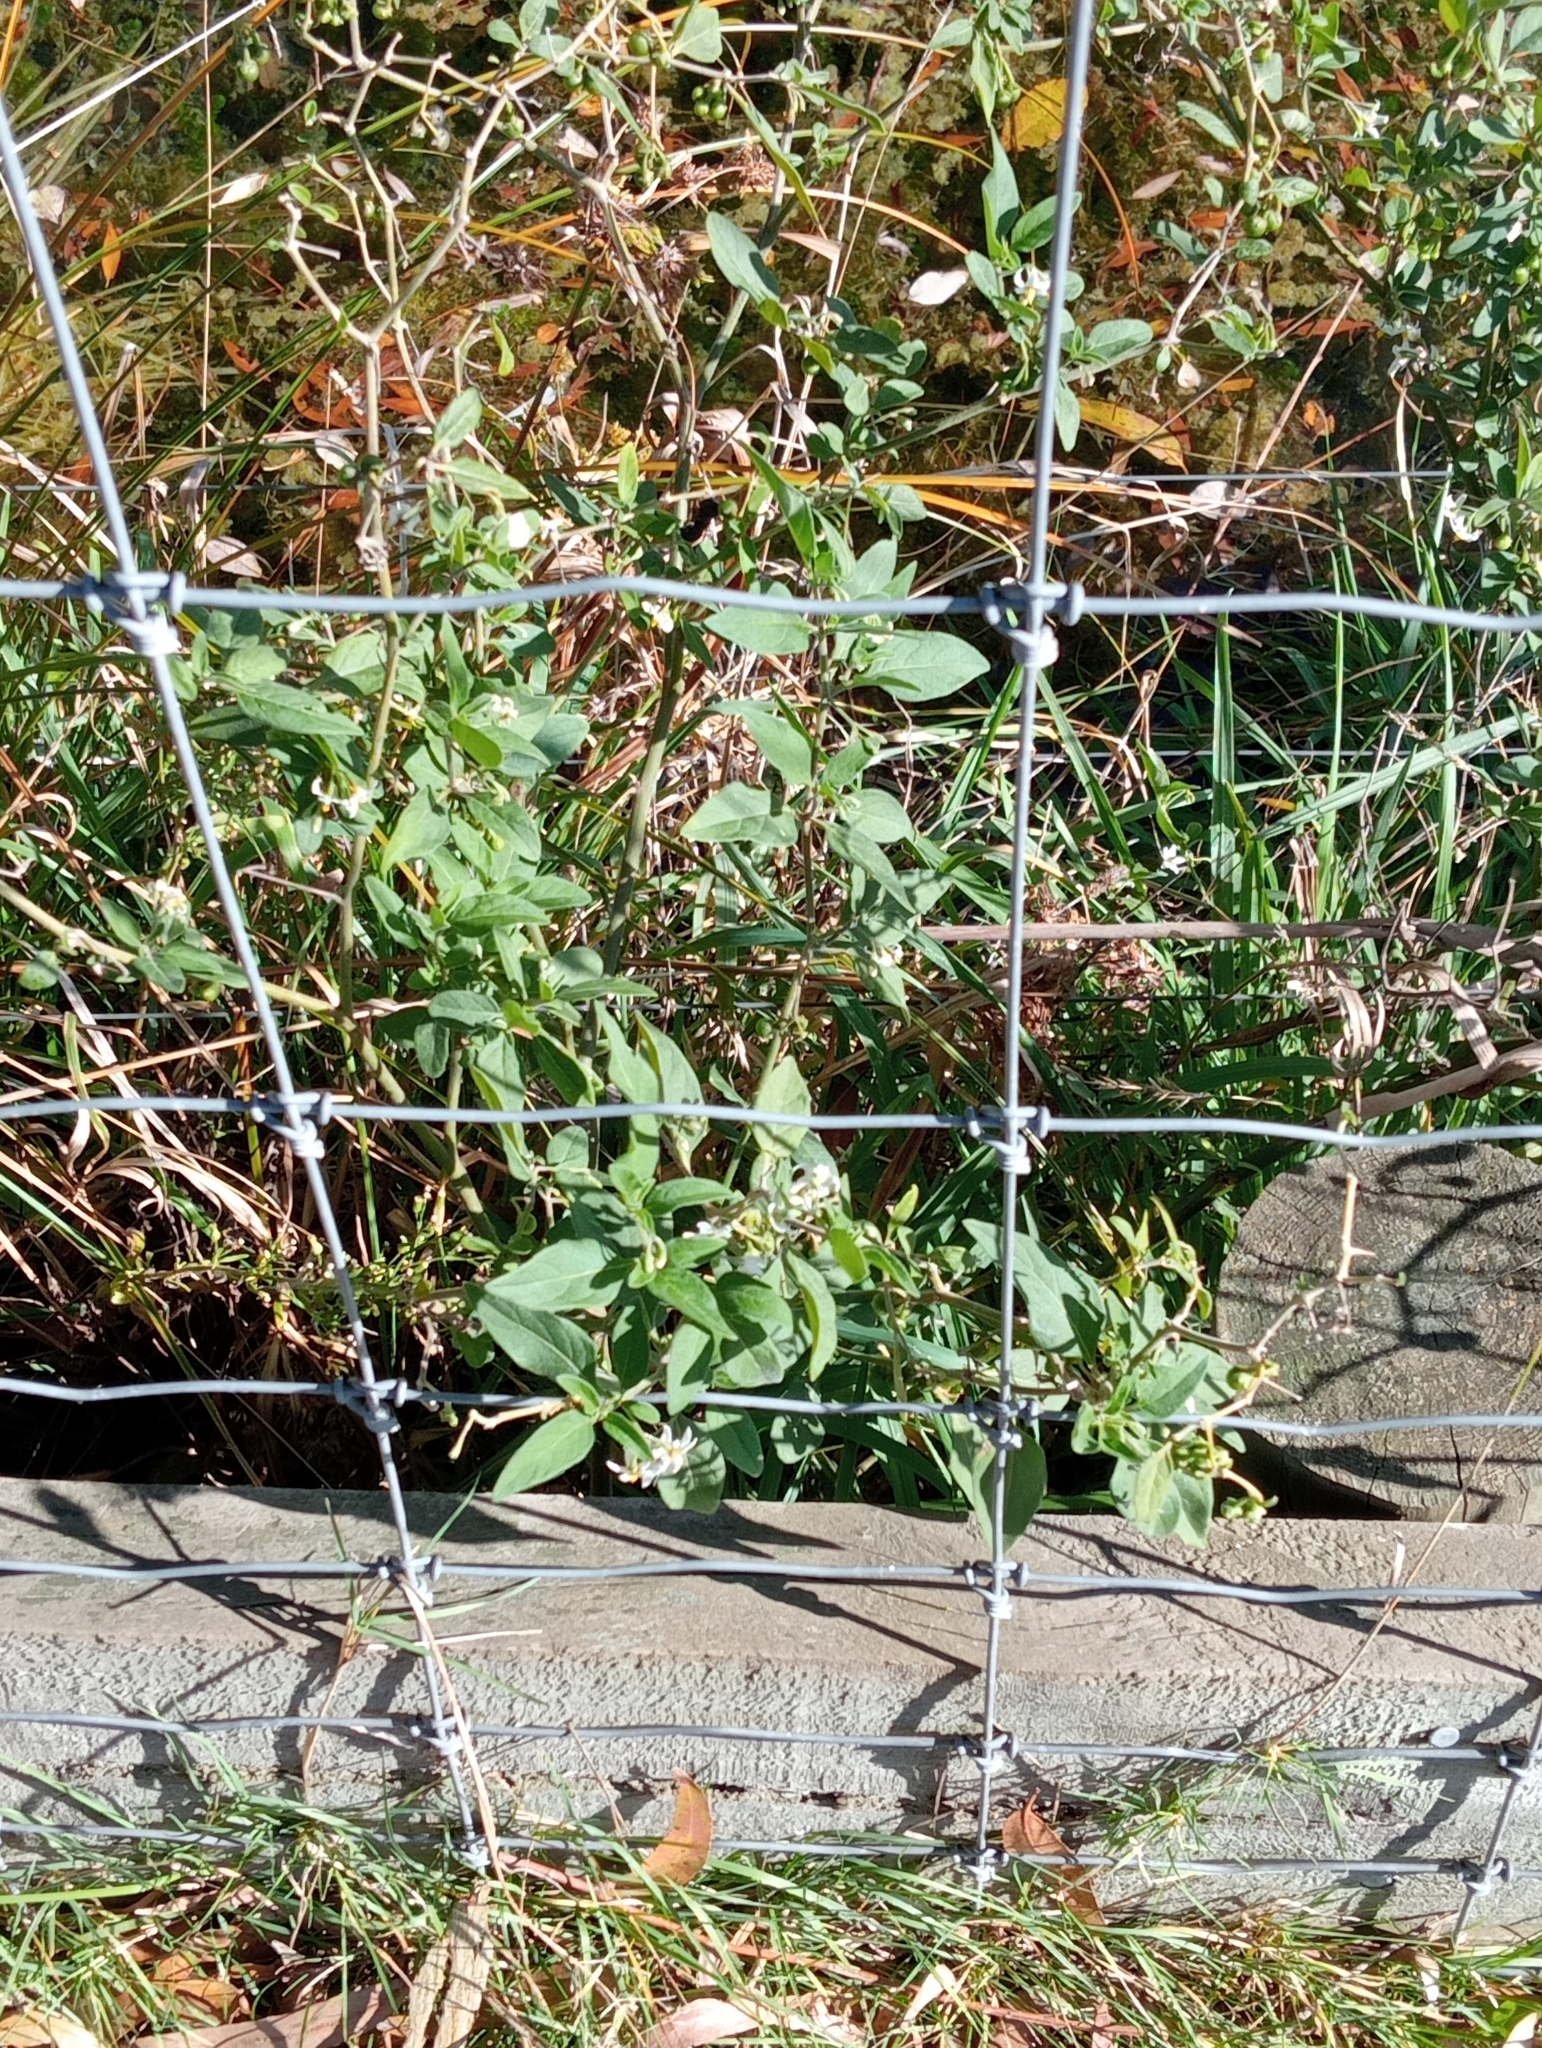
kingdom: Plantae
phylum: Tracheophyta
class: Magnoliopsida
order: Solanales
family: Solanaceae
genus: Solanum
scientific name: Solanum chenopodioides
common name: Tall nightshade
